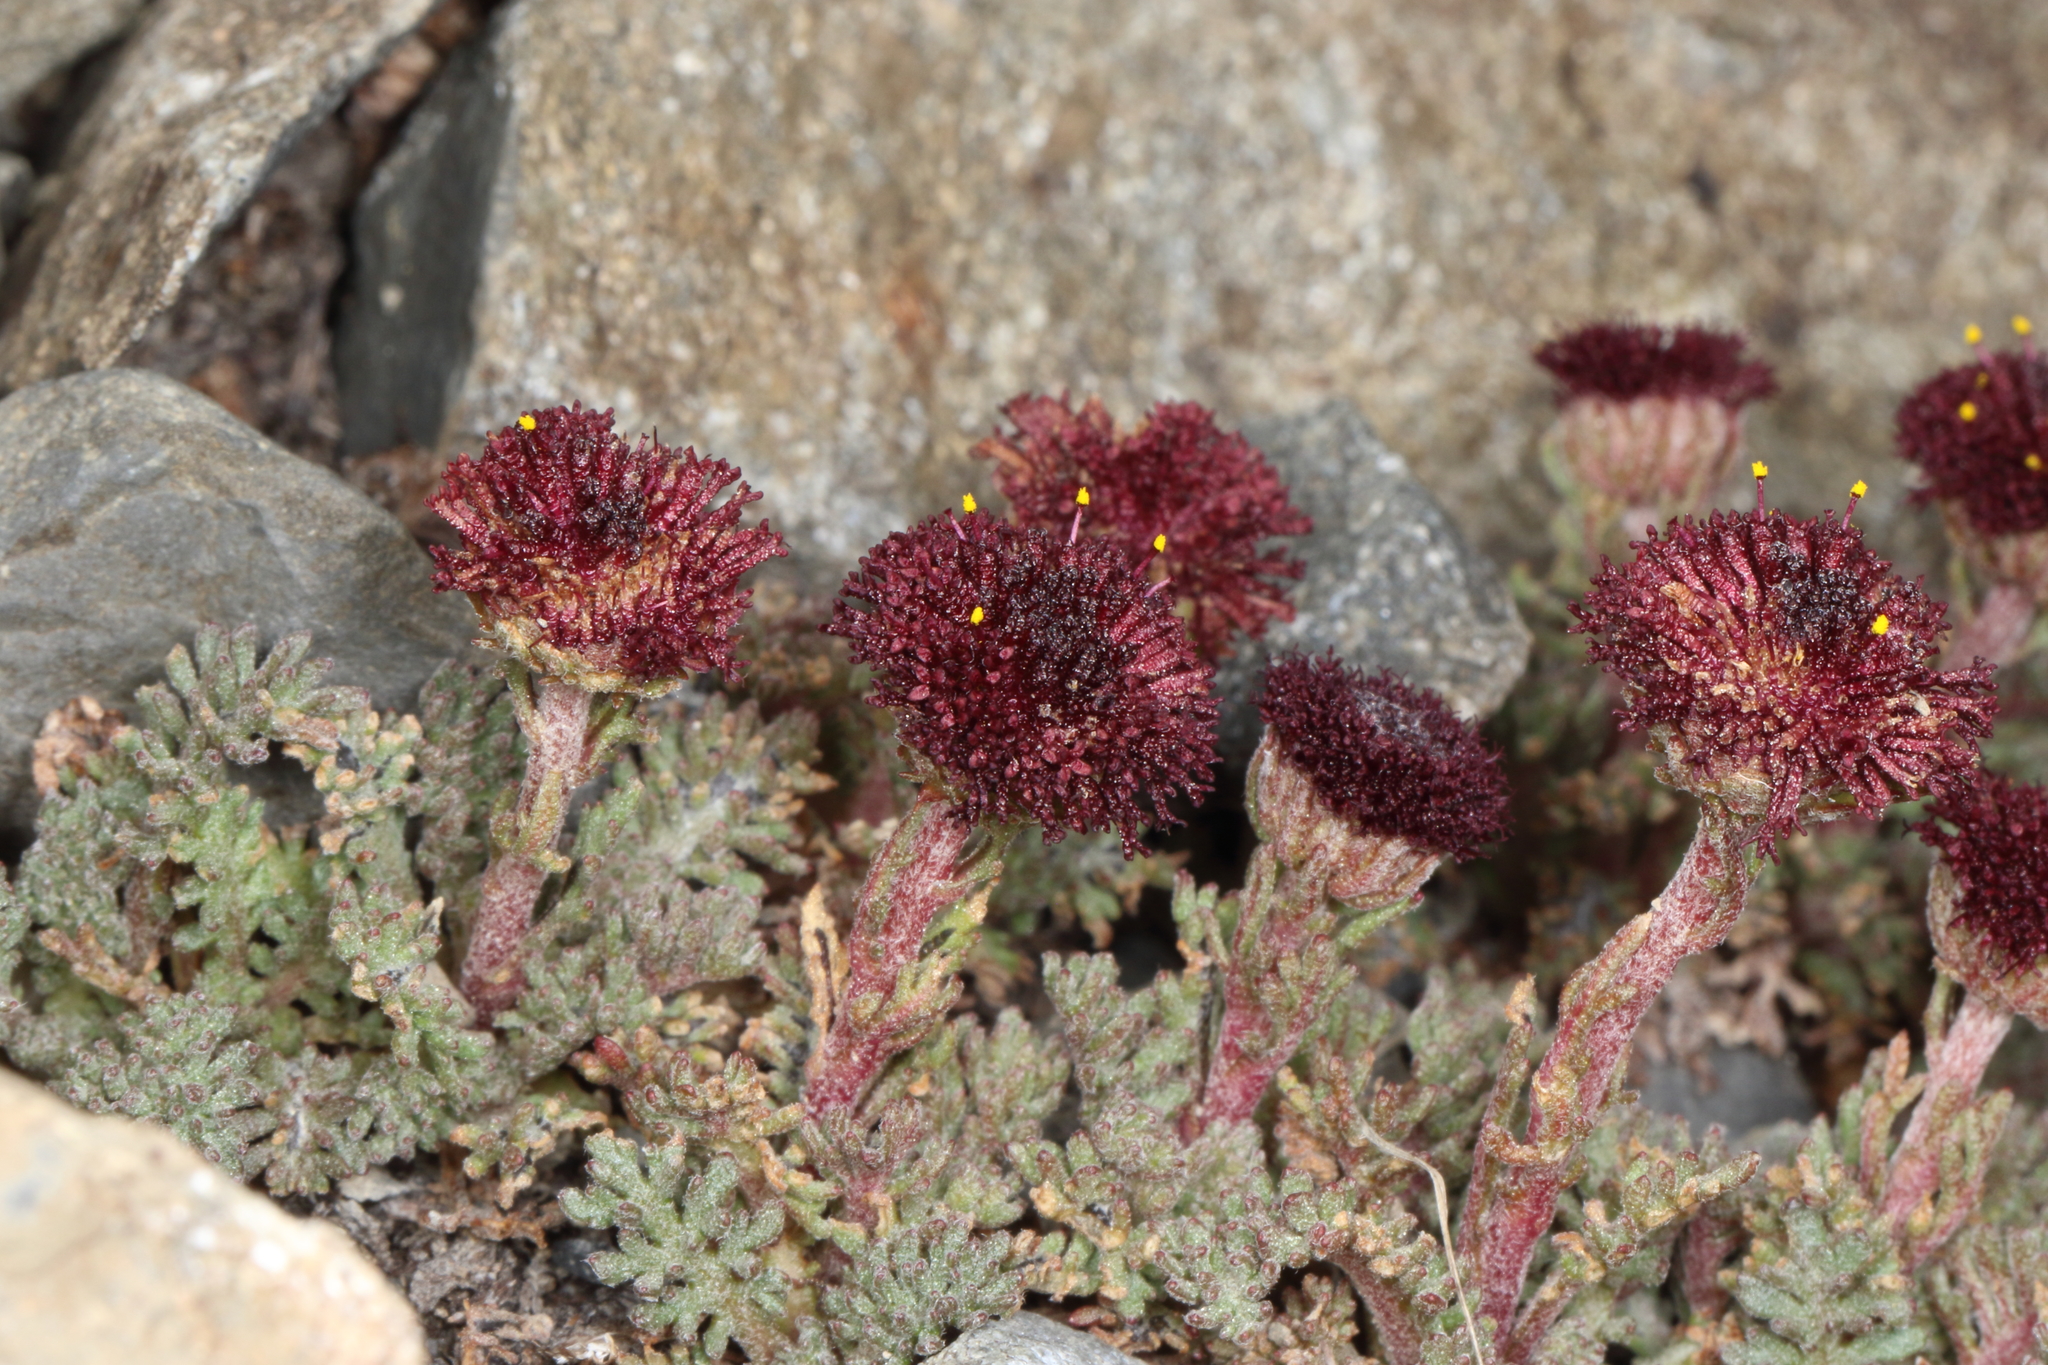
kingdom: Plantae
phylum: Tracheophyta
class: Magnoliopsida
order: Asterales
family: Asteraceae
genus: Leptinella
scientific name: Leptinella atrata
